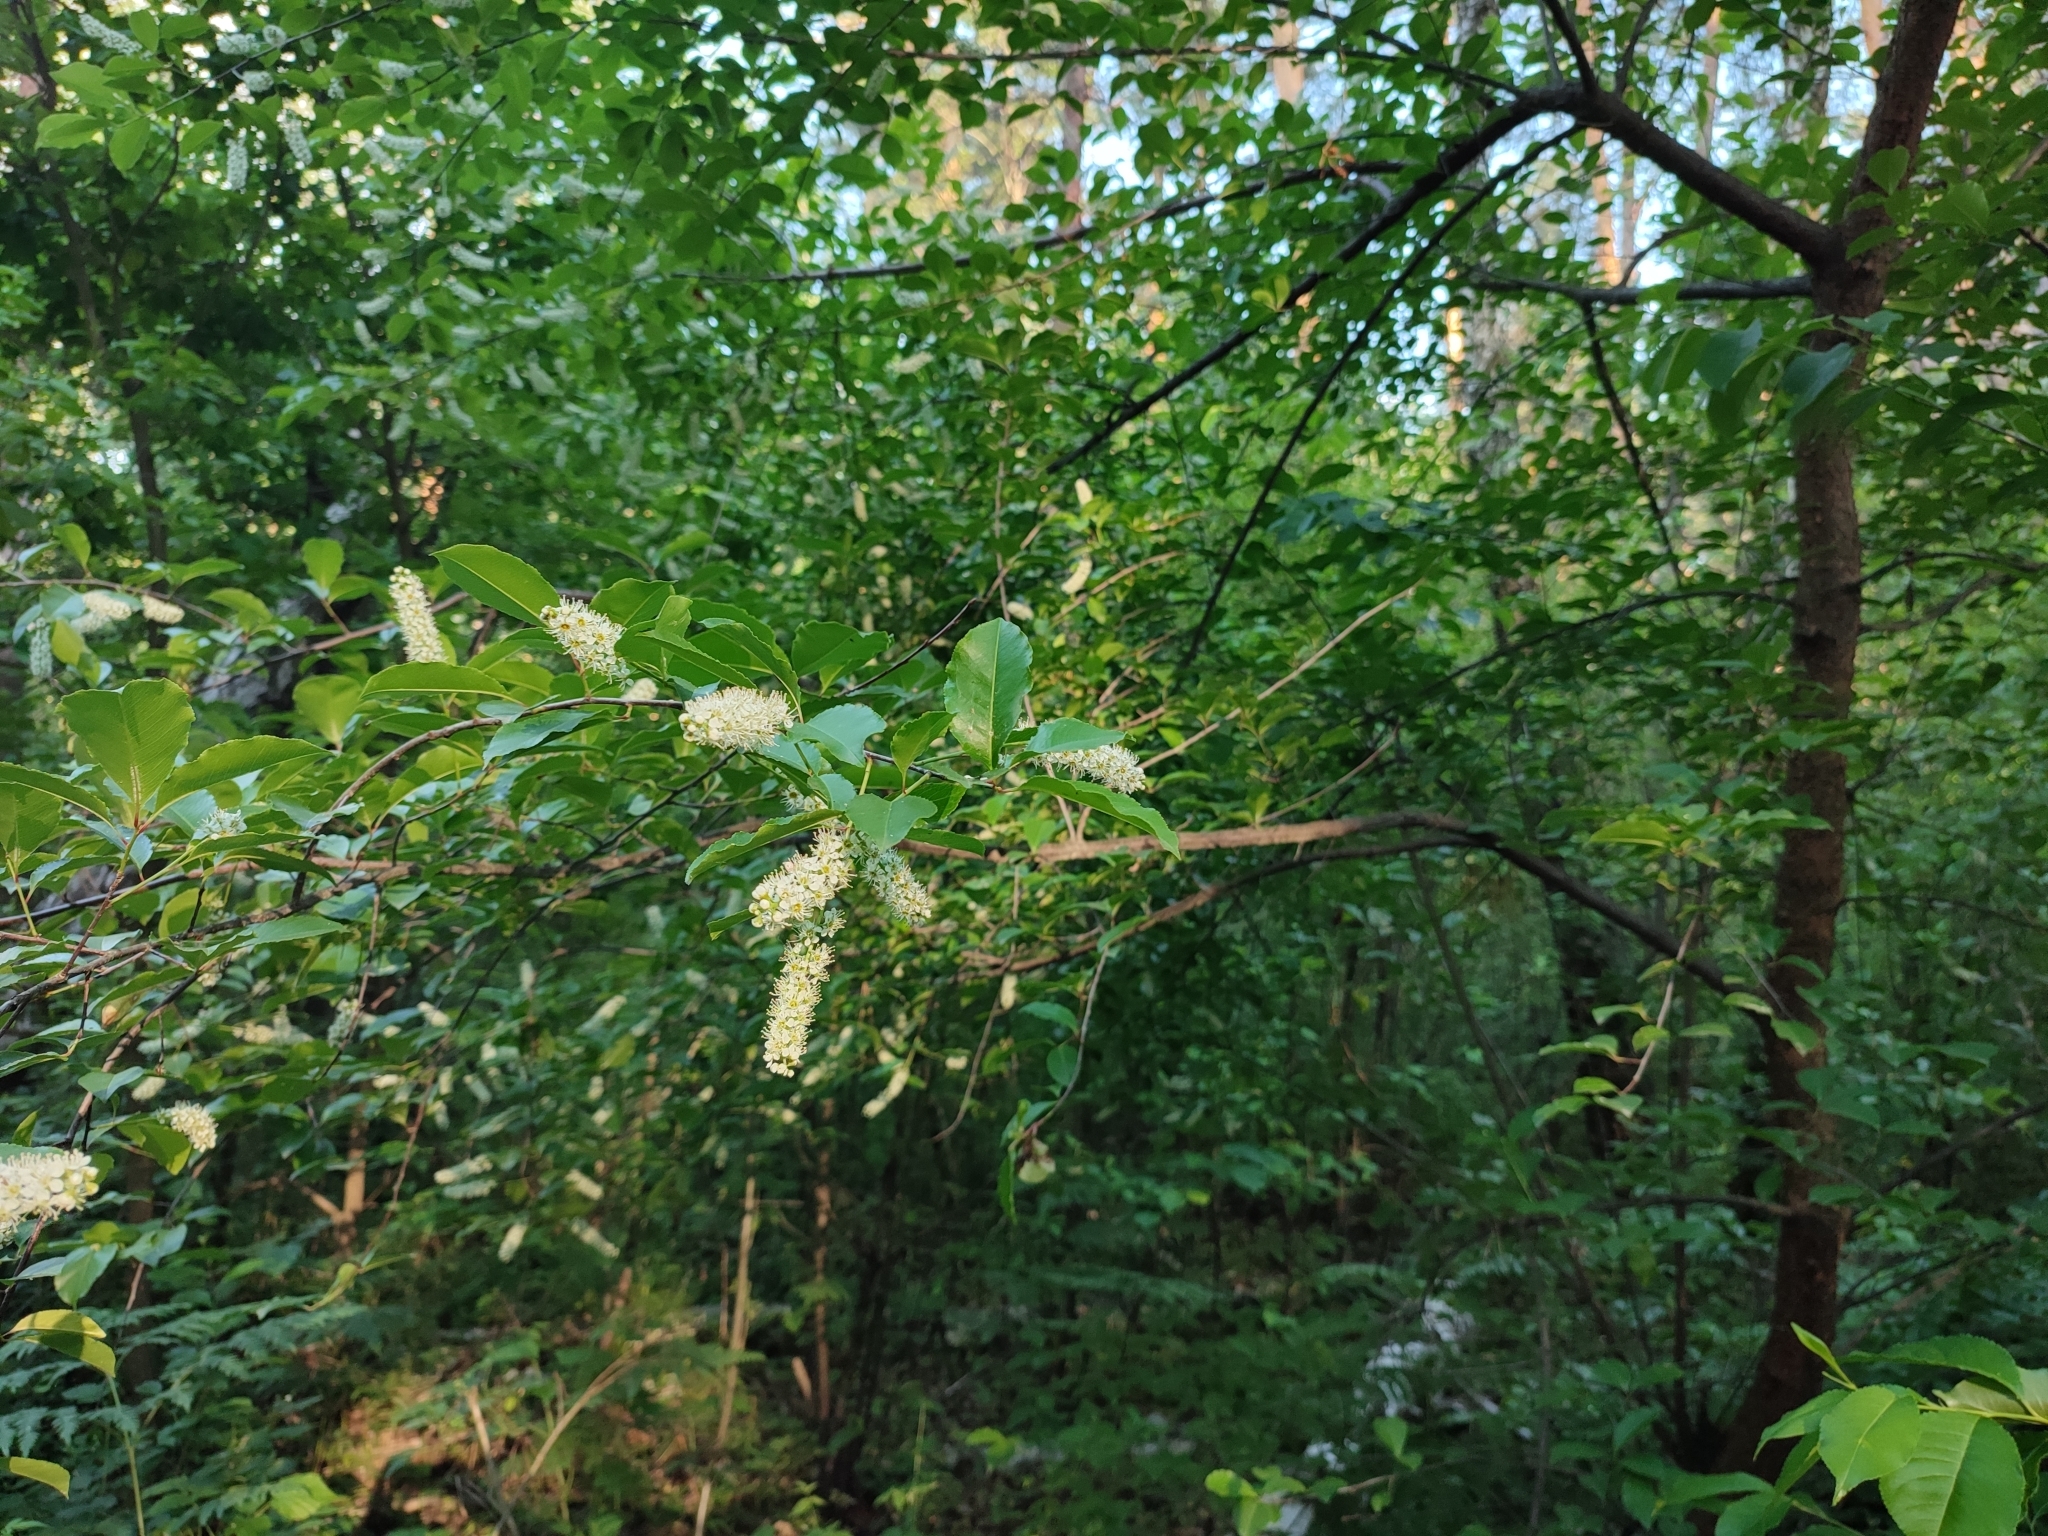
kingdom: Plantae
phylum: Tracheophyta
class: Magnoliopsida
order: Rosales
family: Rosaceae
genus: Prunus
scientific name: Prunus serotina
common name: Black cherry
